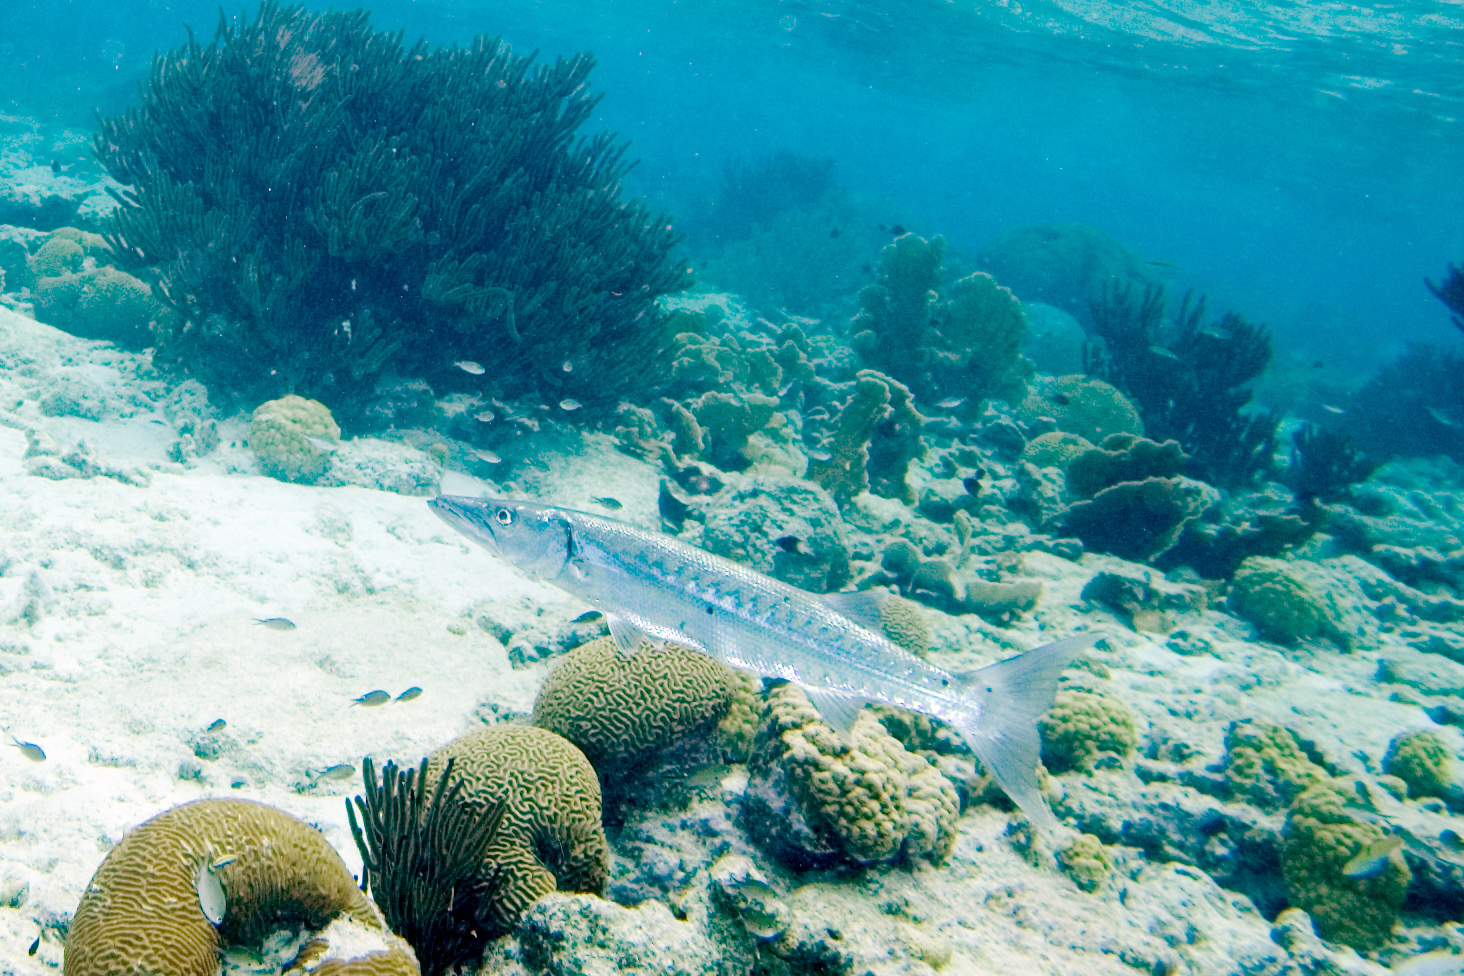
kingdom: Animalia
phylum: Chordata
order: Perciformes
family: Sphyraenidae
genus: Sphyraena
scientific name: Sphyraena barracuda
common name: Great barracuda
